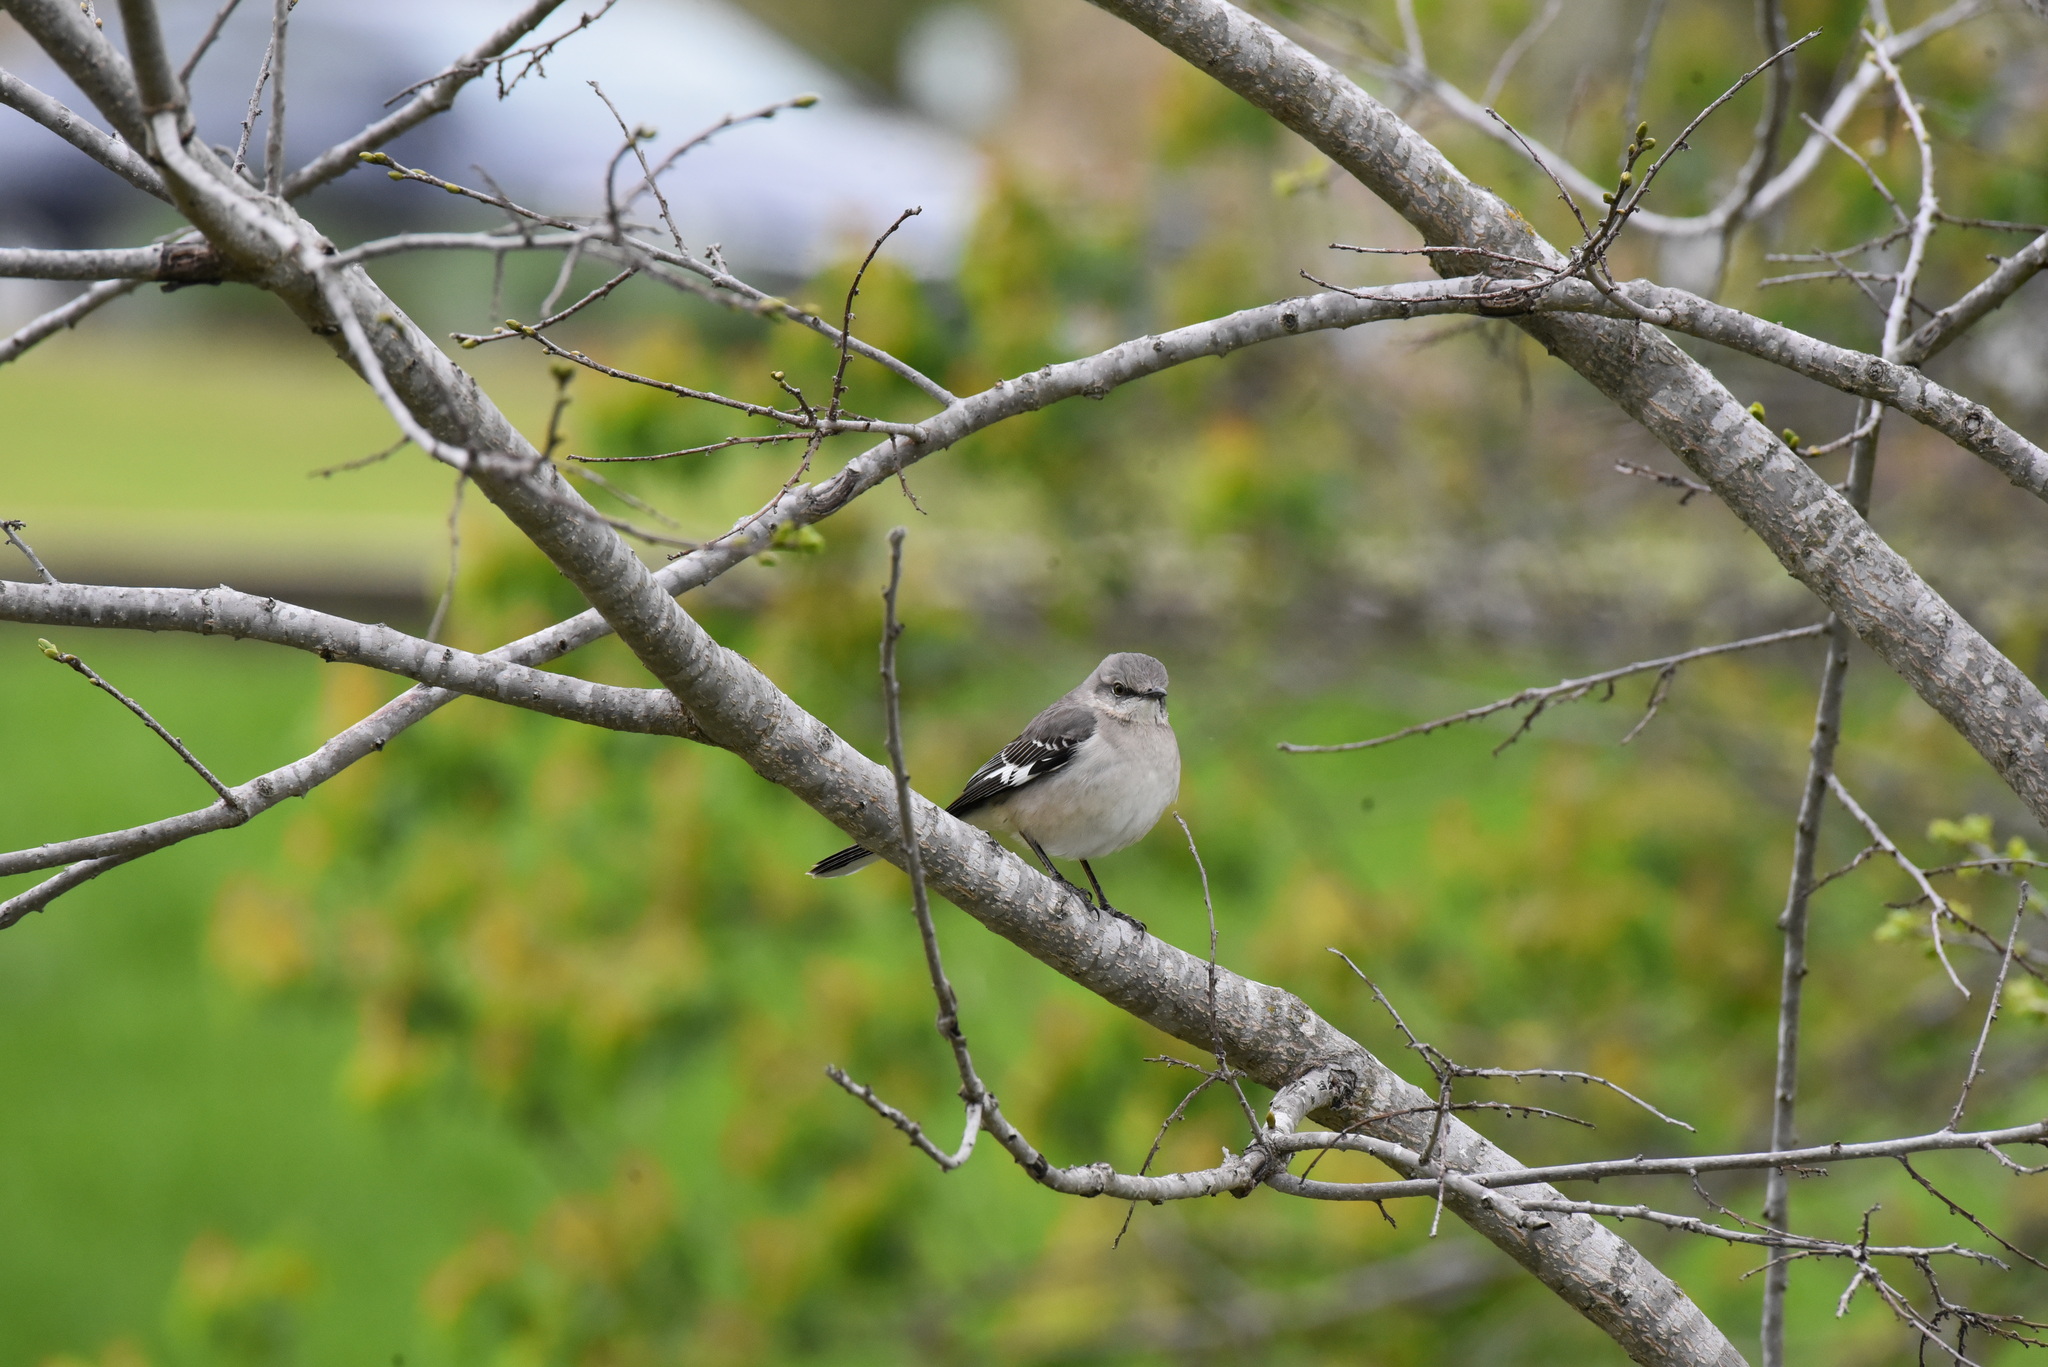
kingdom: Animalia
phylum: Chordata
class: Aves
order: Passeriformes
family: Mimidae
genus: Mimus
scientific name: Mimus polyglottos
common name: Northern mockingbird
